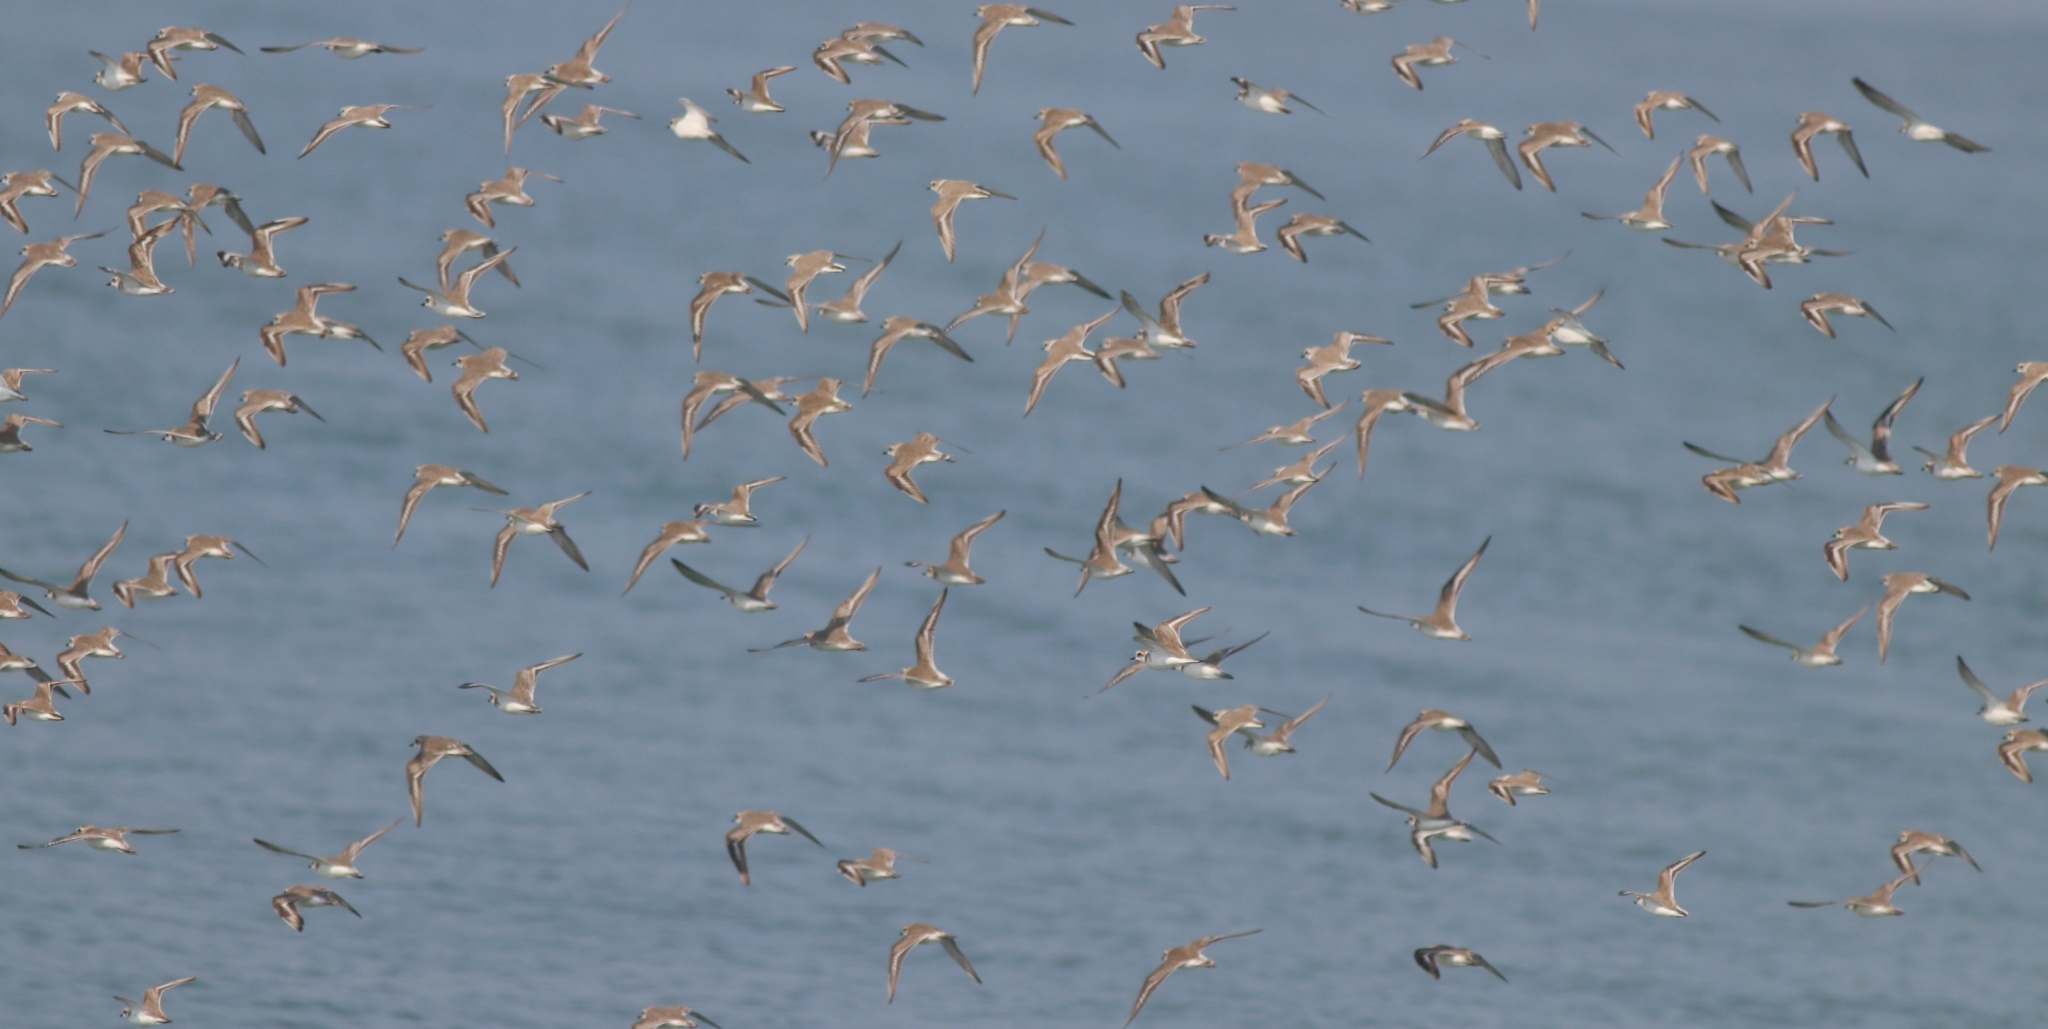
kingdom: Animalia
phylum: Chordata
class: Aves
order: Charadriiformes
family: Charadriidae
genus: Anarhynchus
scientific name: Anarhynchus
